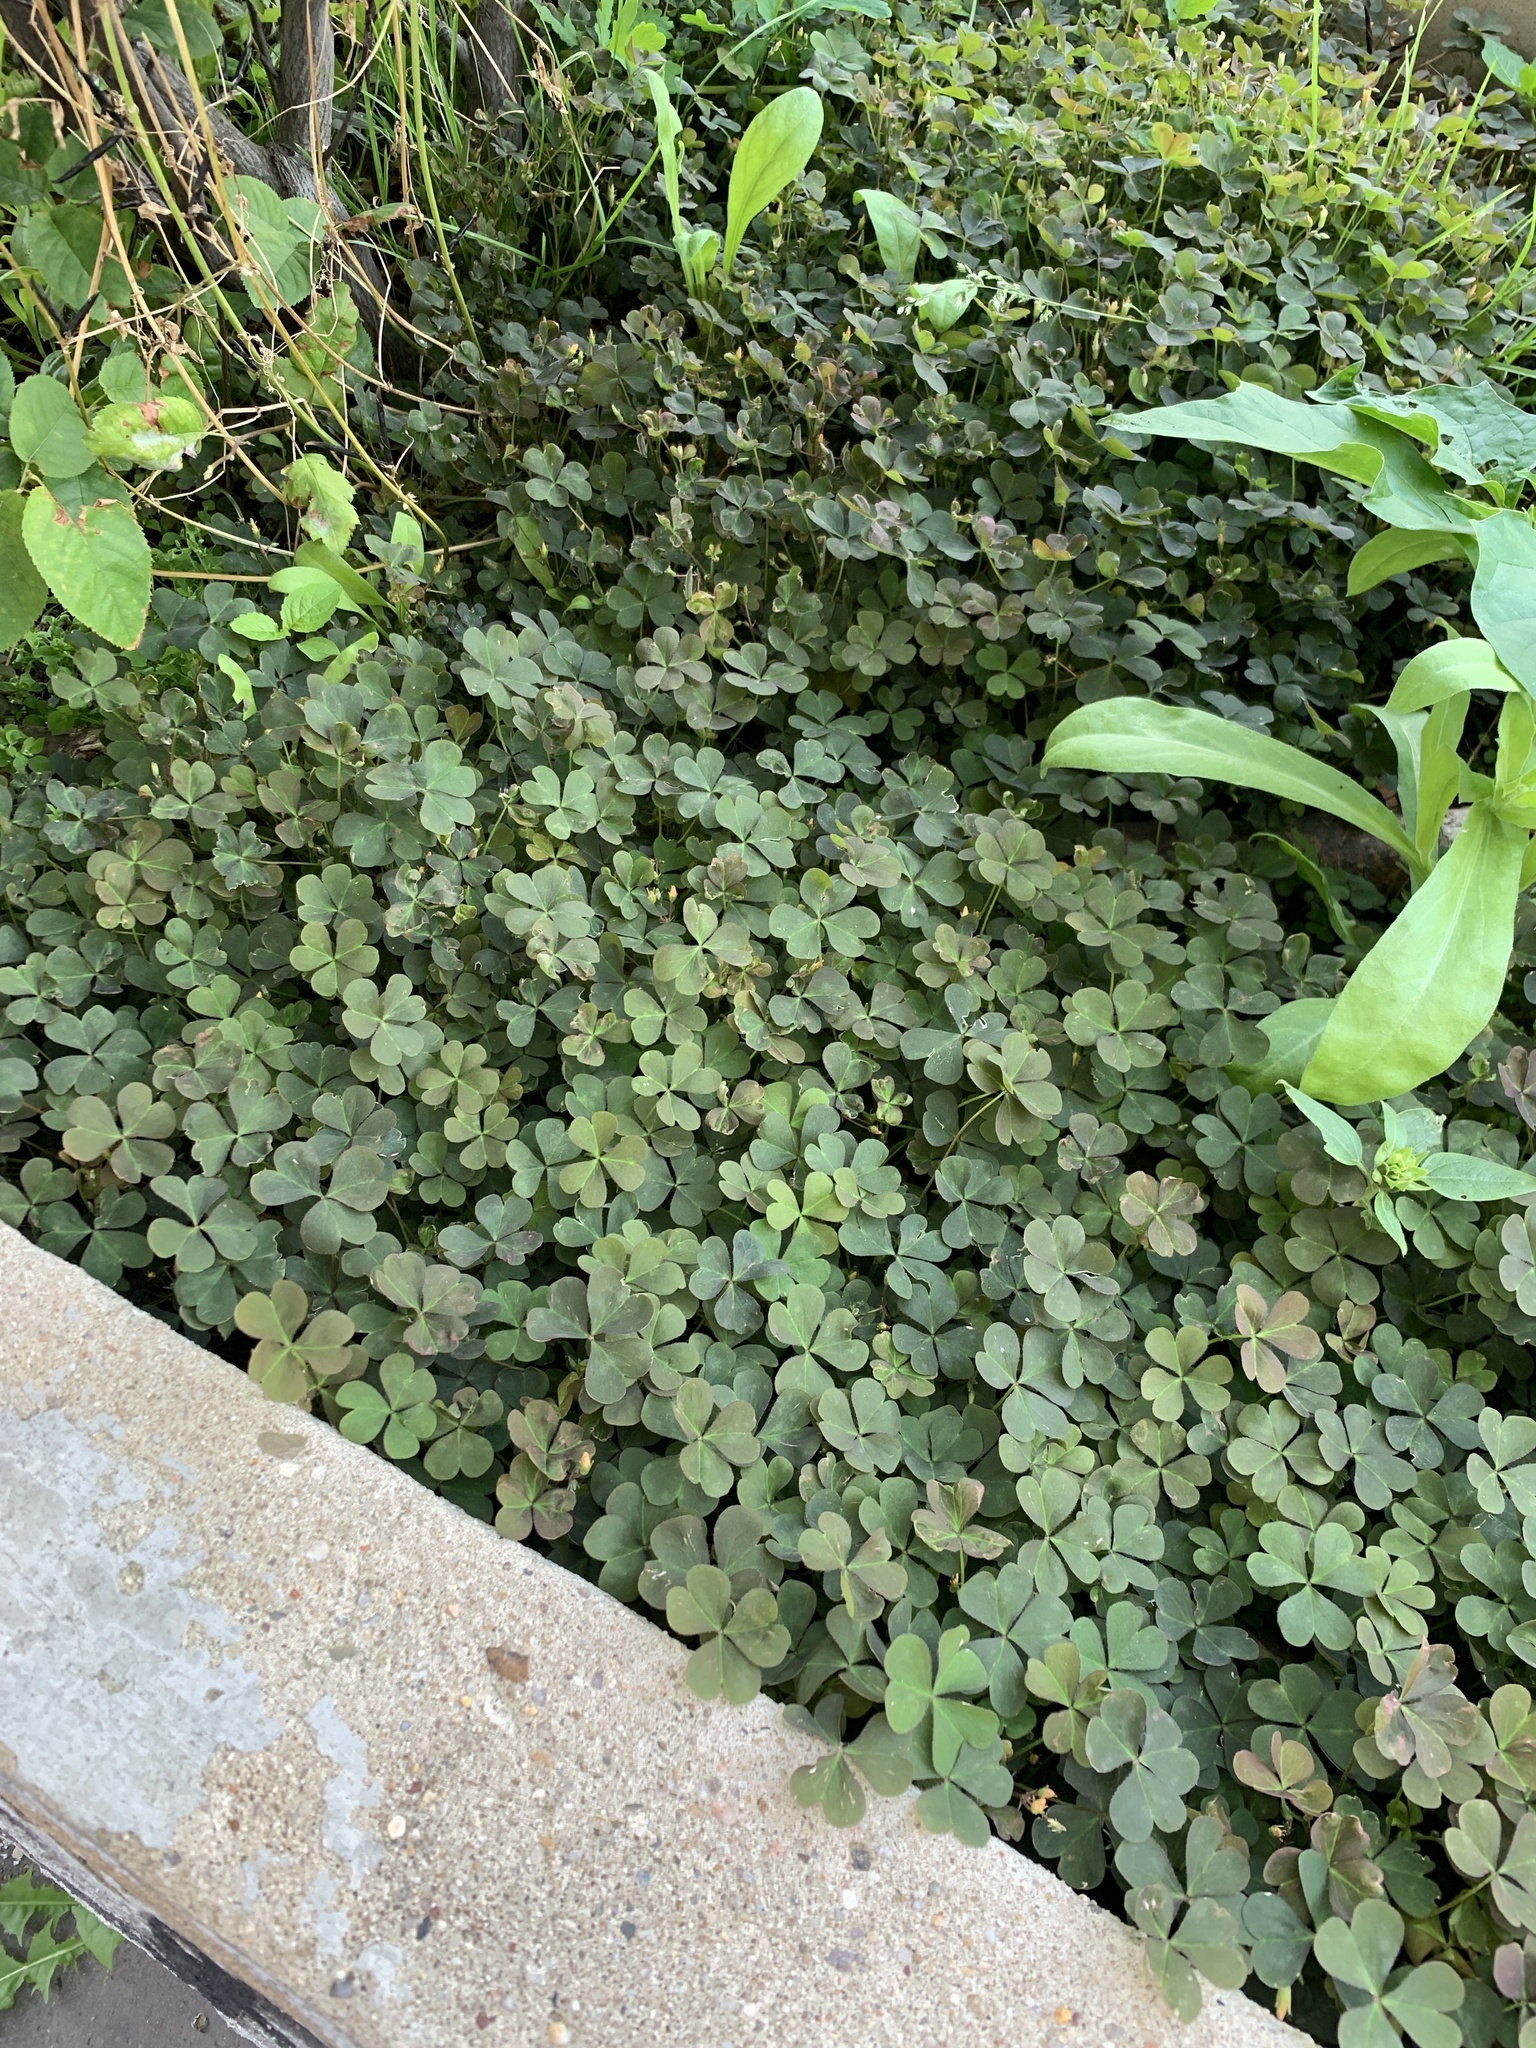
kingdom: Plantae
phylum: Tracheophyta
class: Magnoliopsida
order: Oxalidales
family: Oxalidaceae
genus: Oxalis
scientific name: Oxalis corniculata
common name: Procumbent yellow-sorrel
